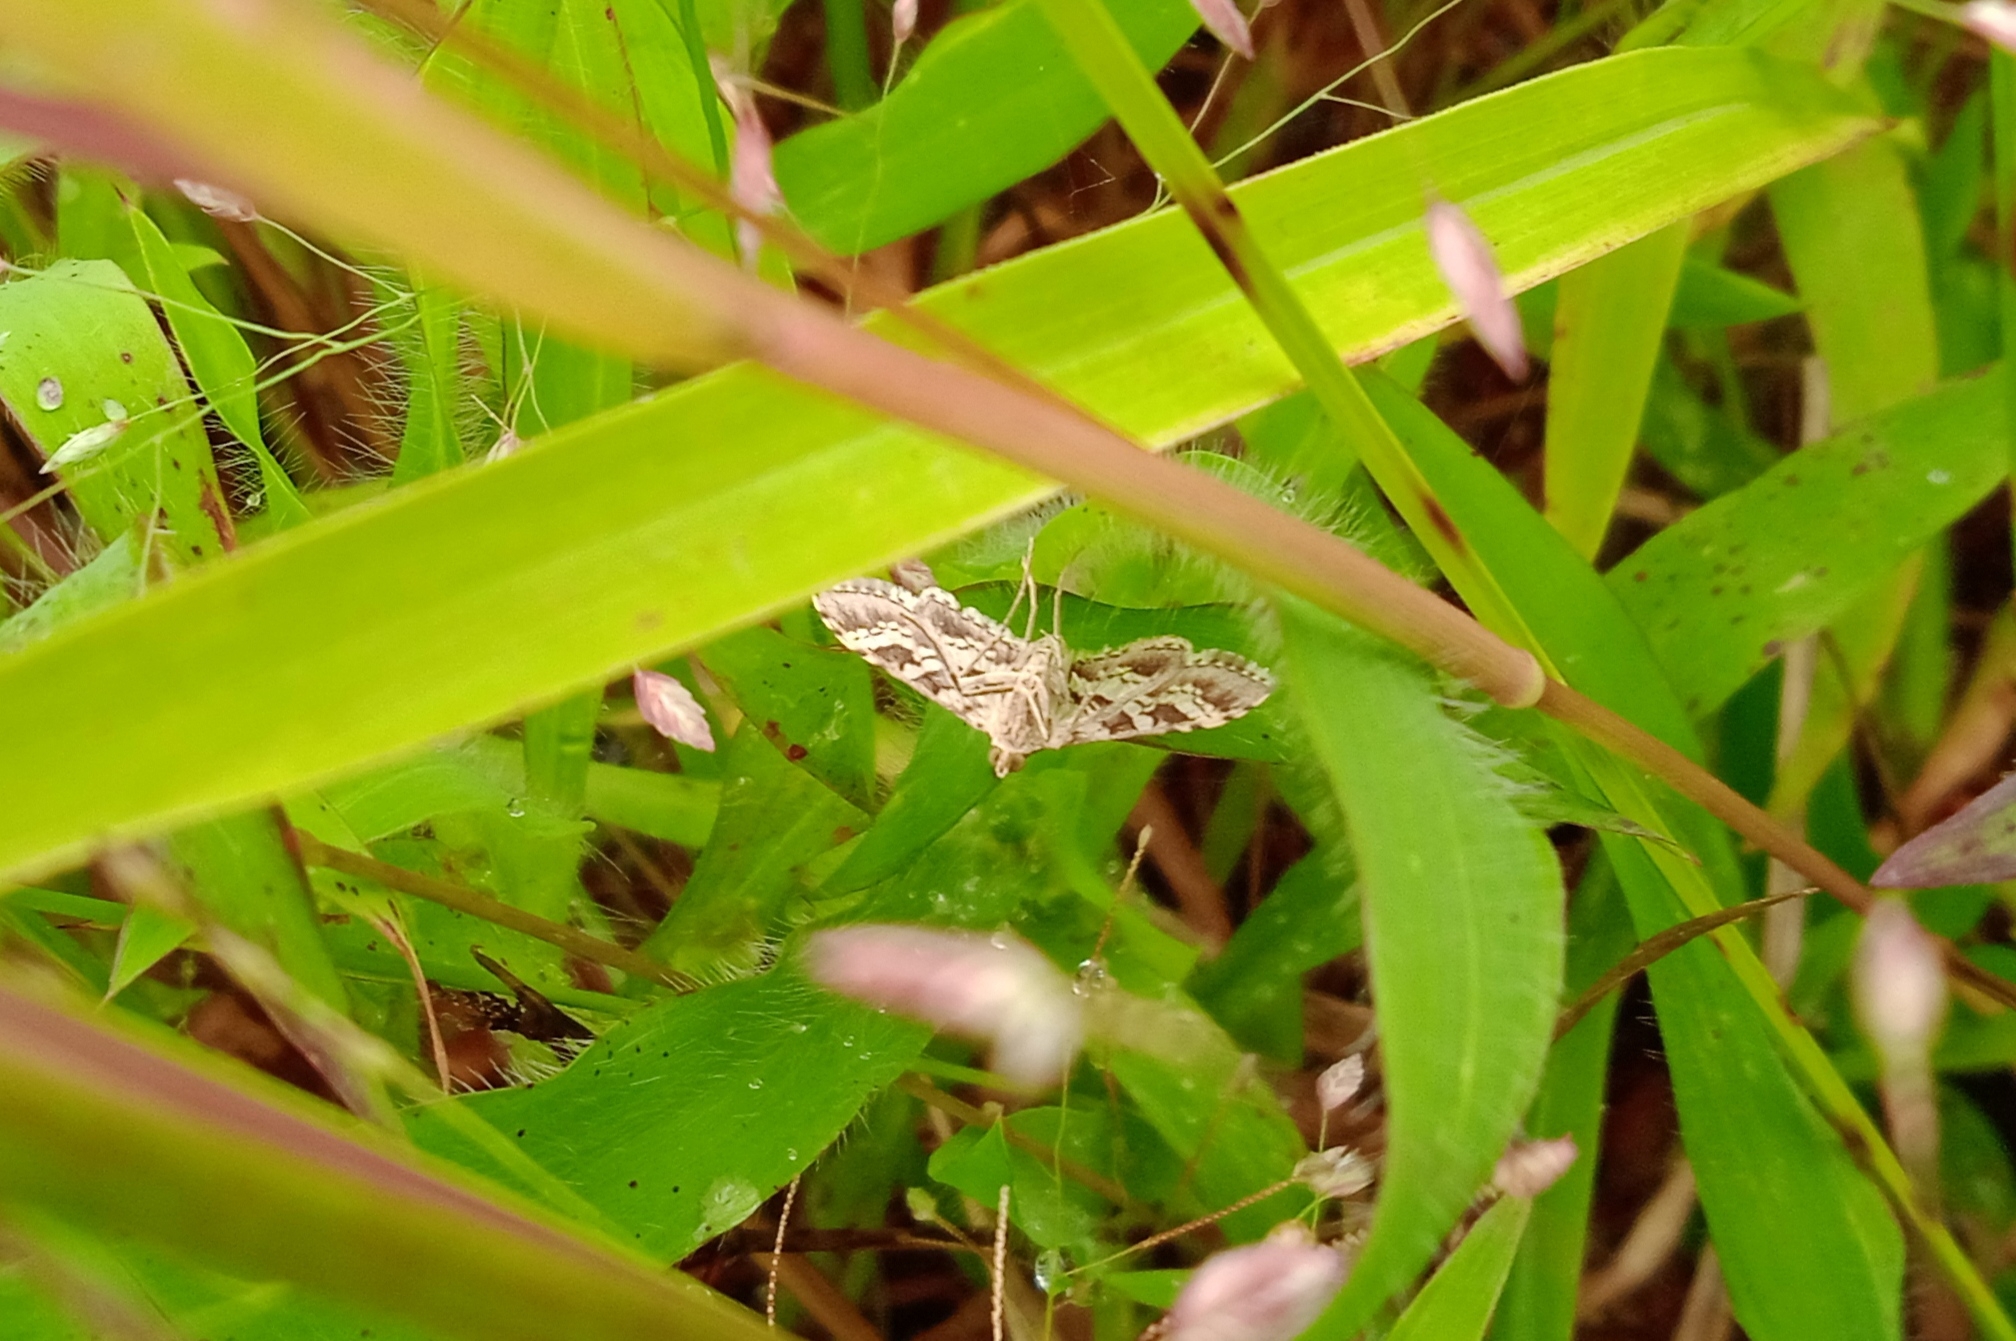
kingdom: Animalia
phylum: Arthropoda
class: Insecta
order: Lepidoptera
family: Crambidae
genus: Spoladea
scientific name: Spoladea recurvalis
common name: Beet webworm moth
